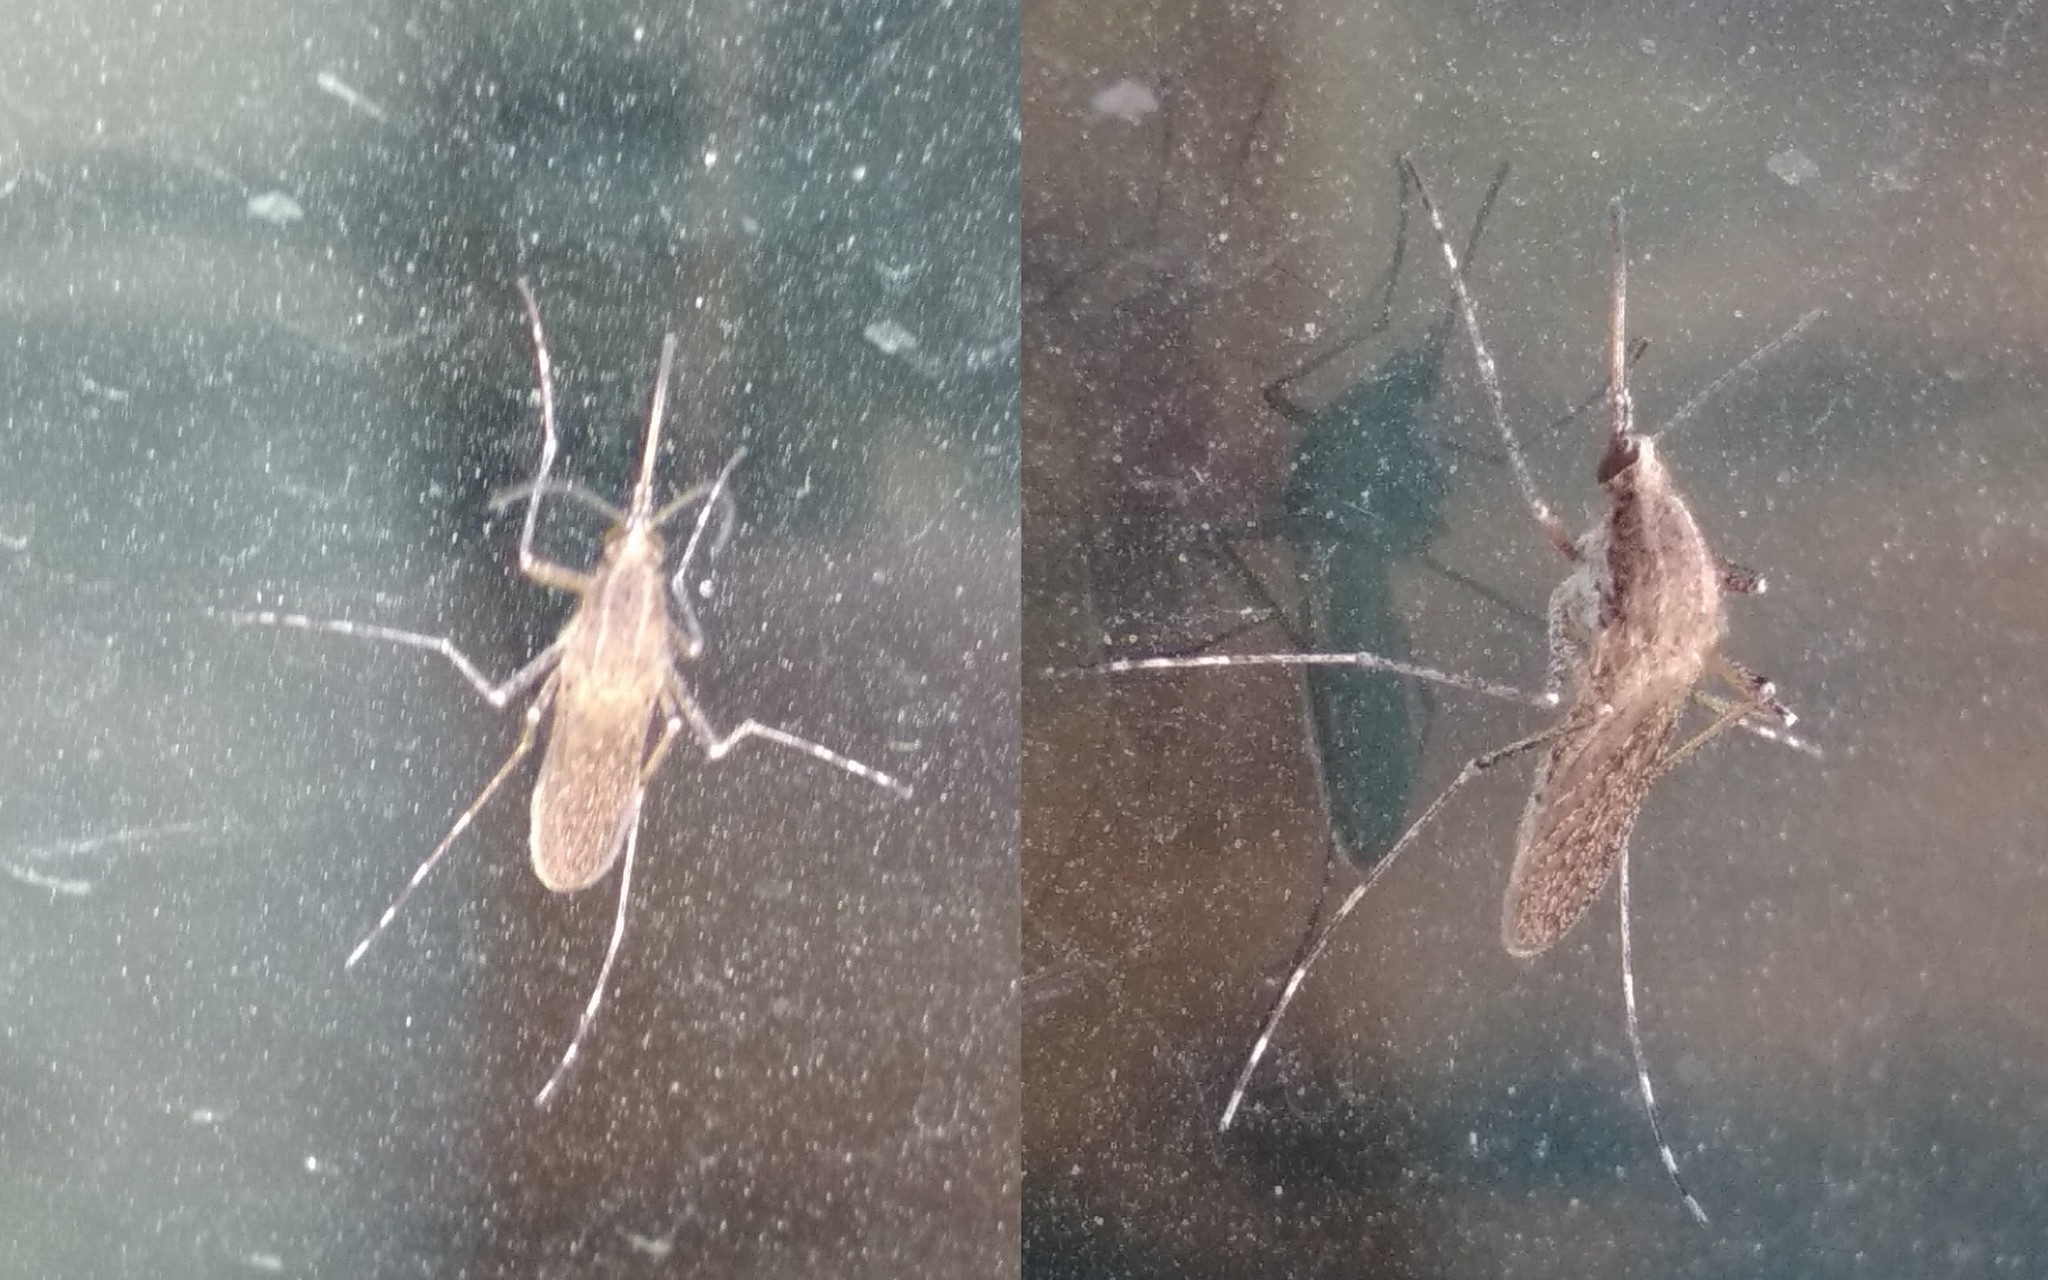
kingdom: Animalia
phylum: Arthropoda
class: Insecta
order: Diptera
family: Culicidae
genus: Aedes
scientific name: Aedes caspius
